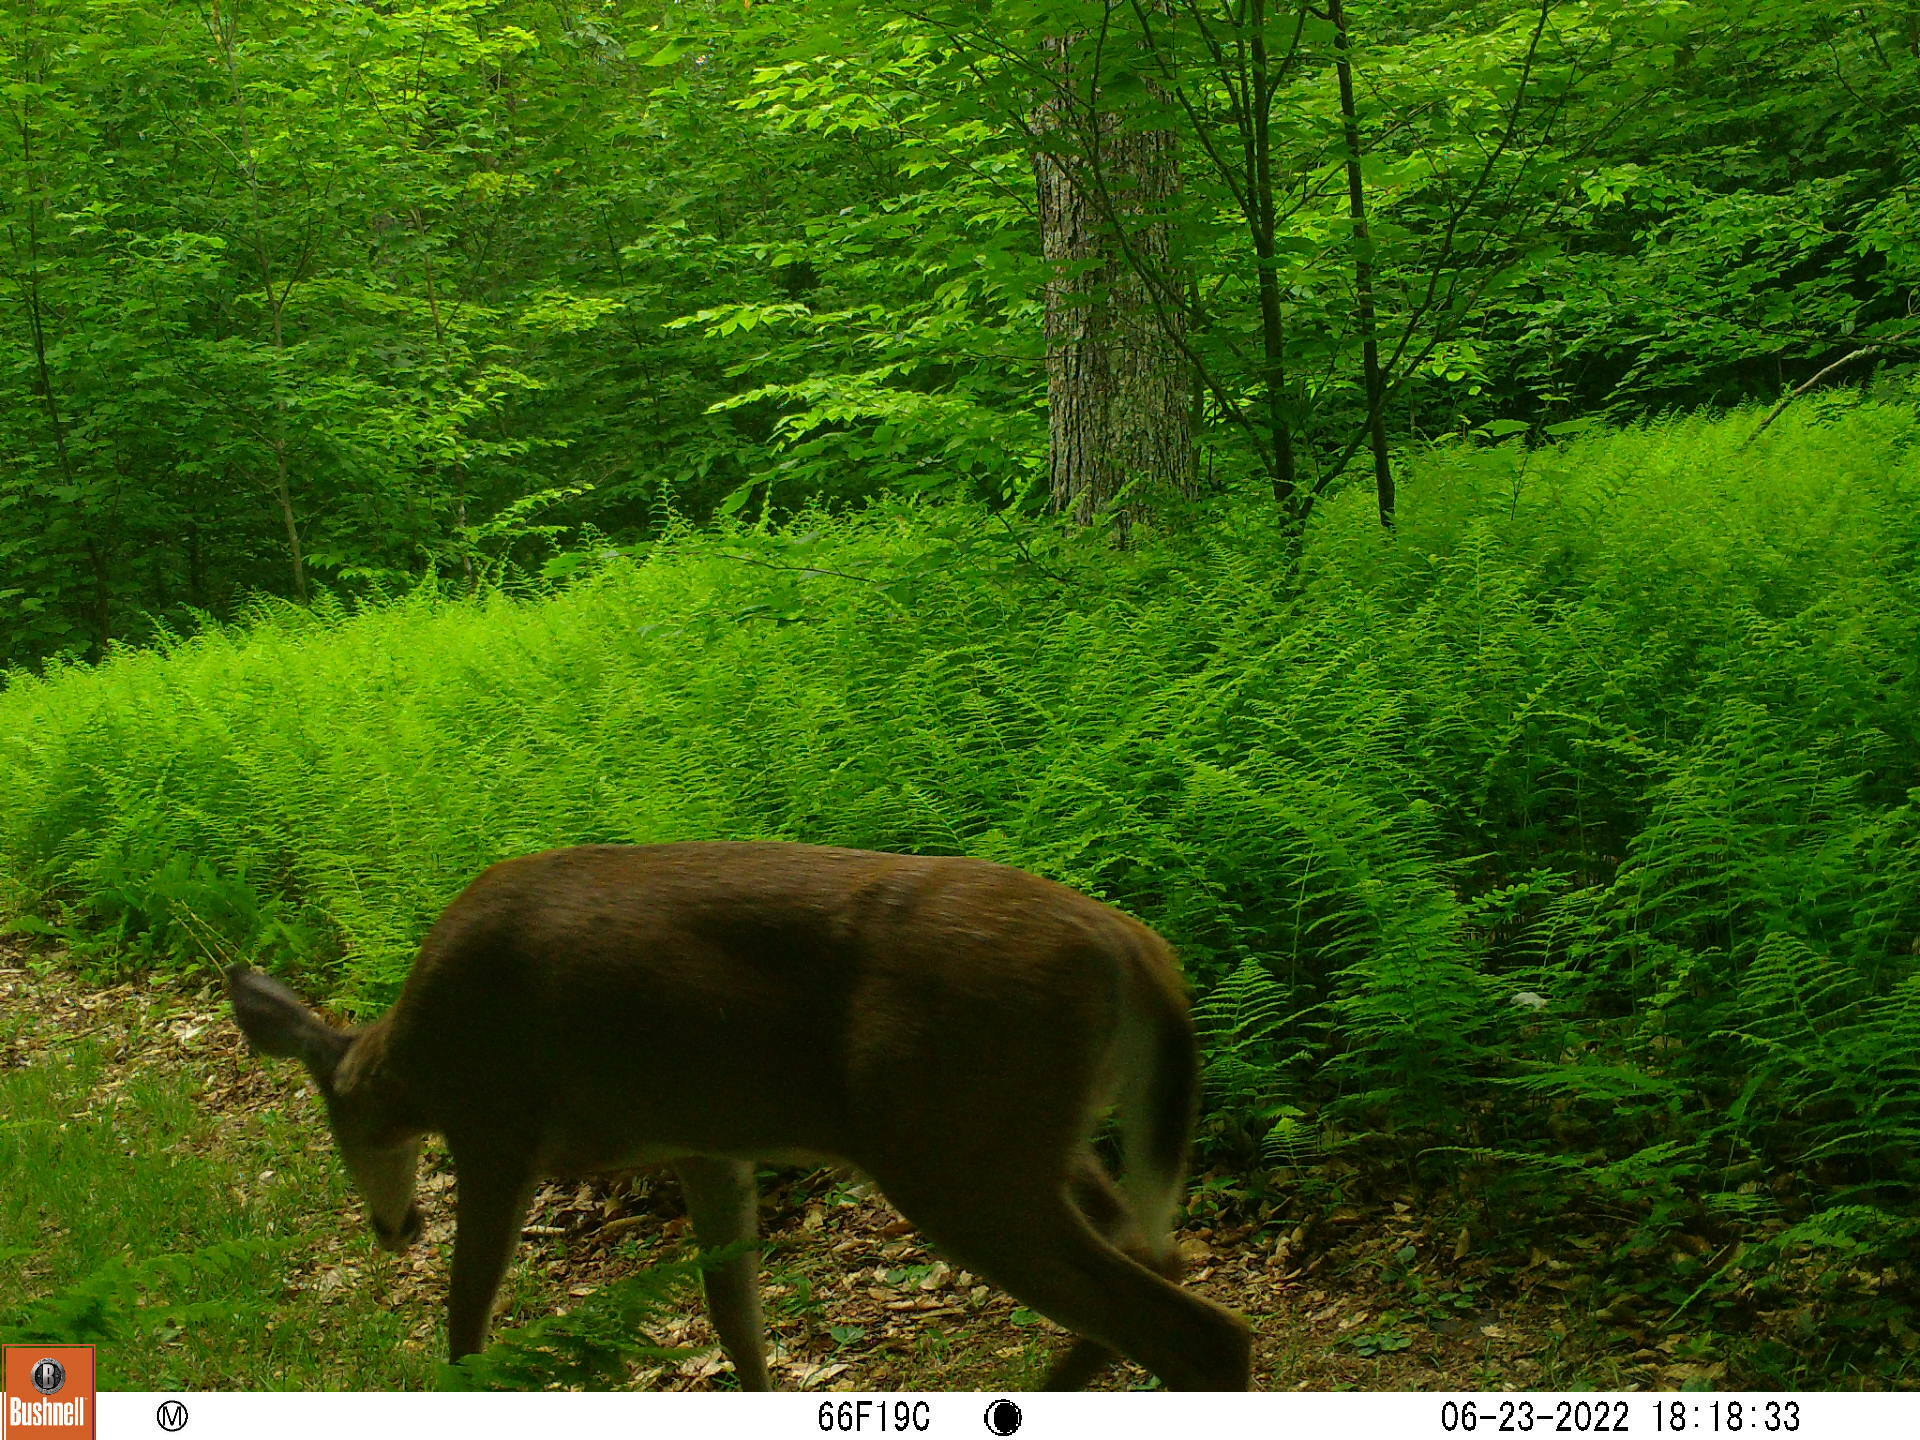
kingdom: Animalia
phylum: Chordata
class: Mammalia
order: Artiodactyla
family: Cervidae
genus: Odocoileus
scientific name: Odocoileus virginianus
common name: White-tailed deer
